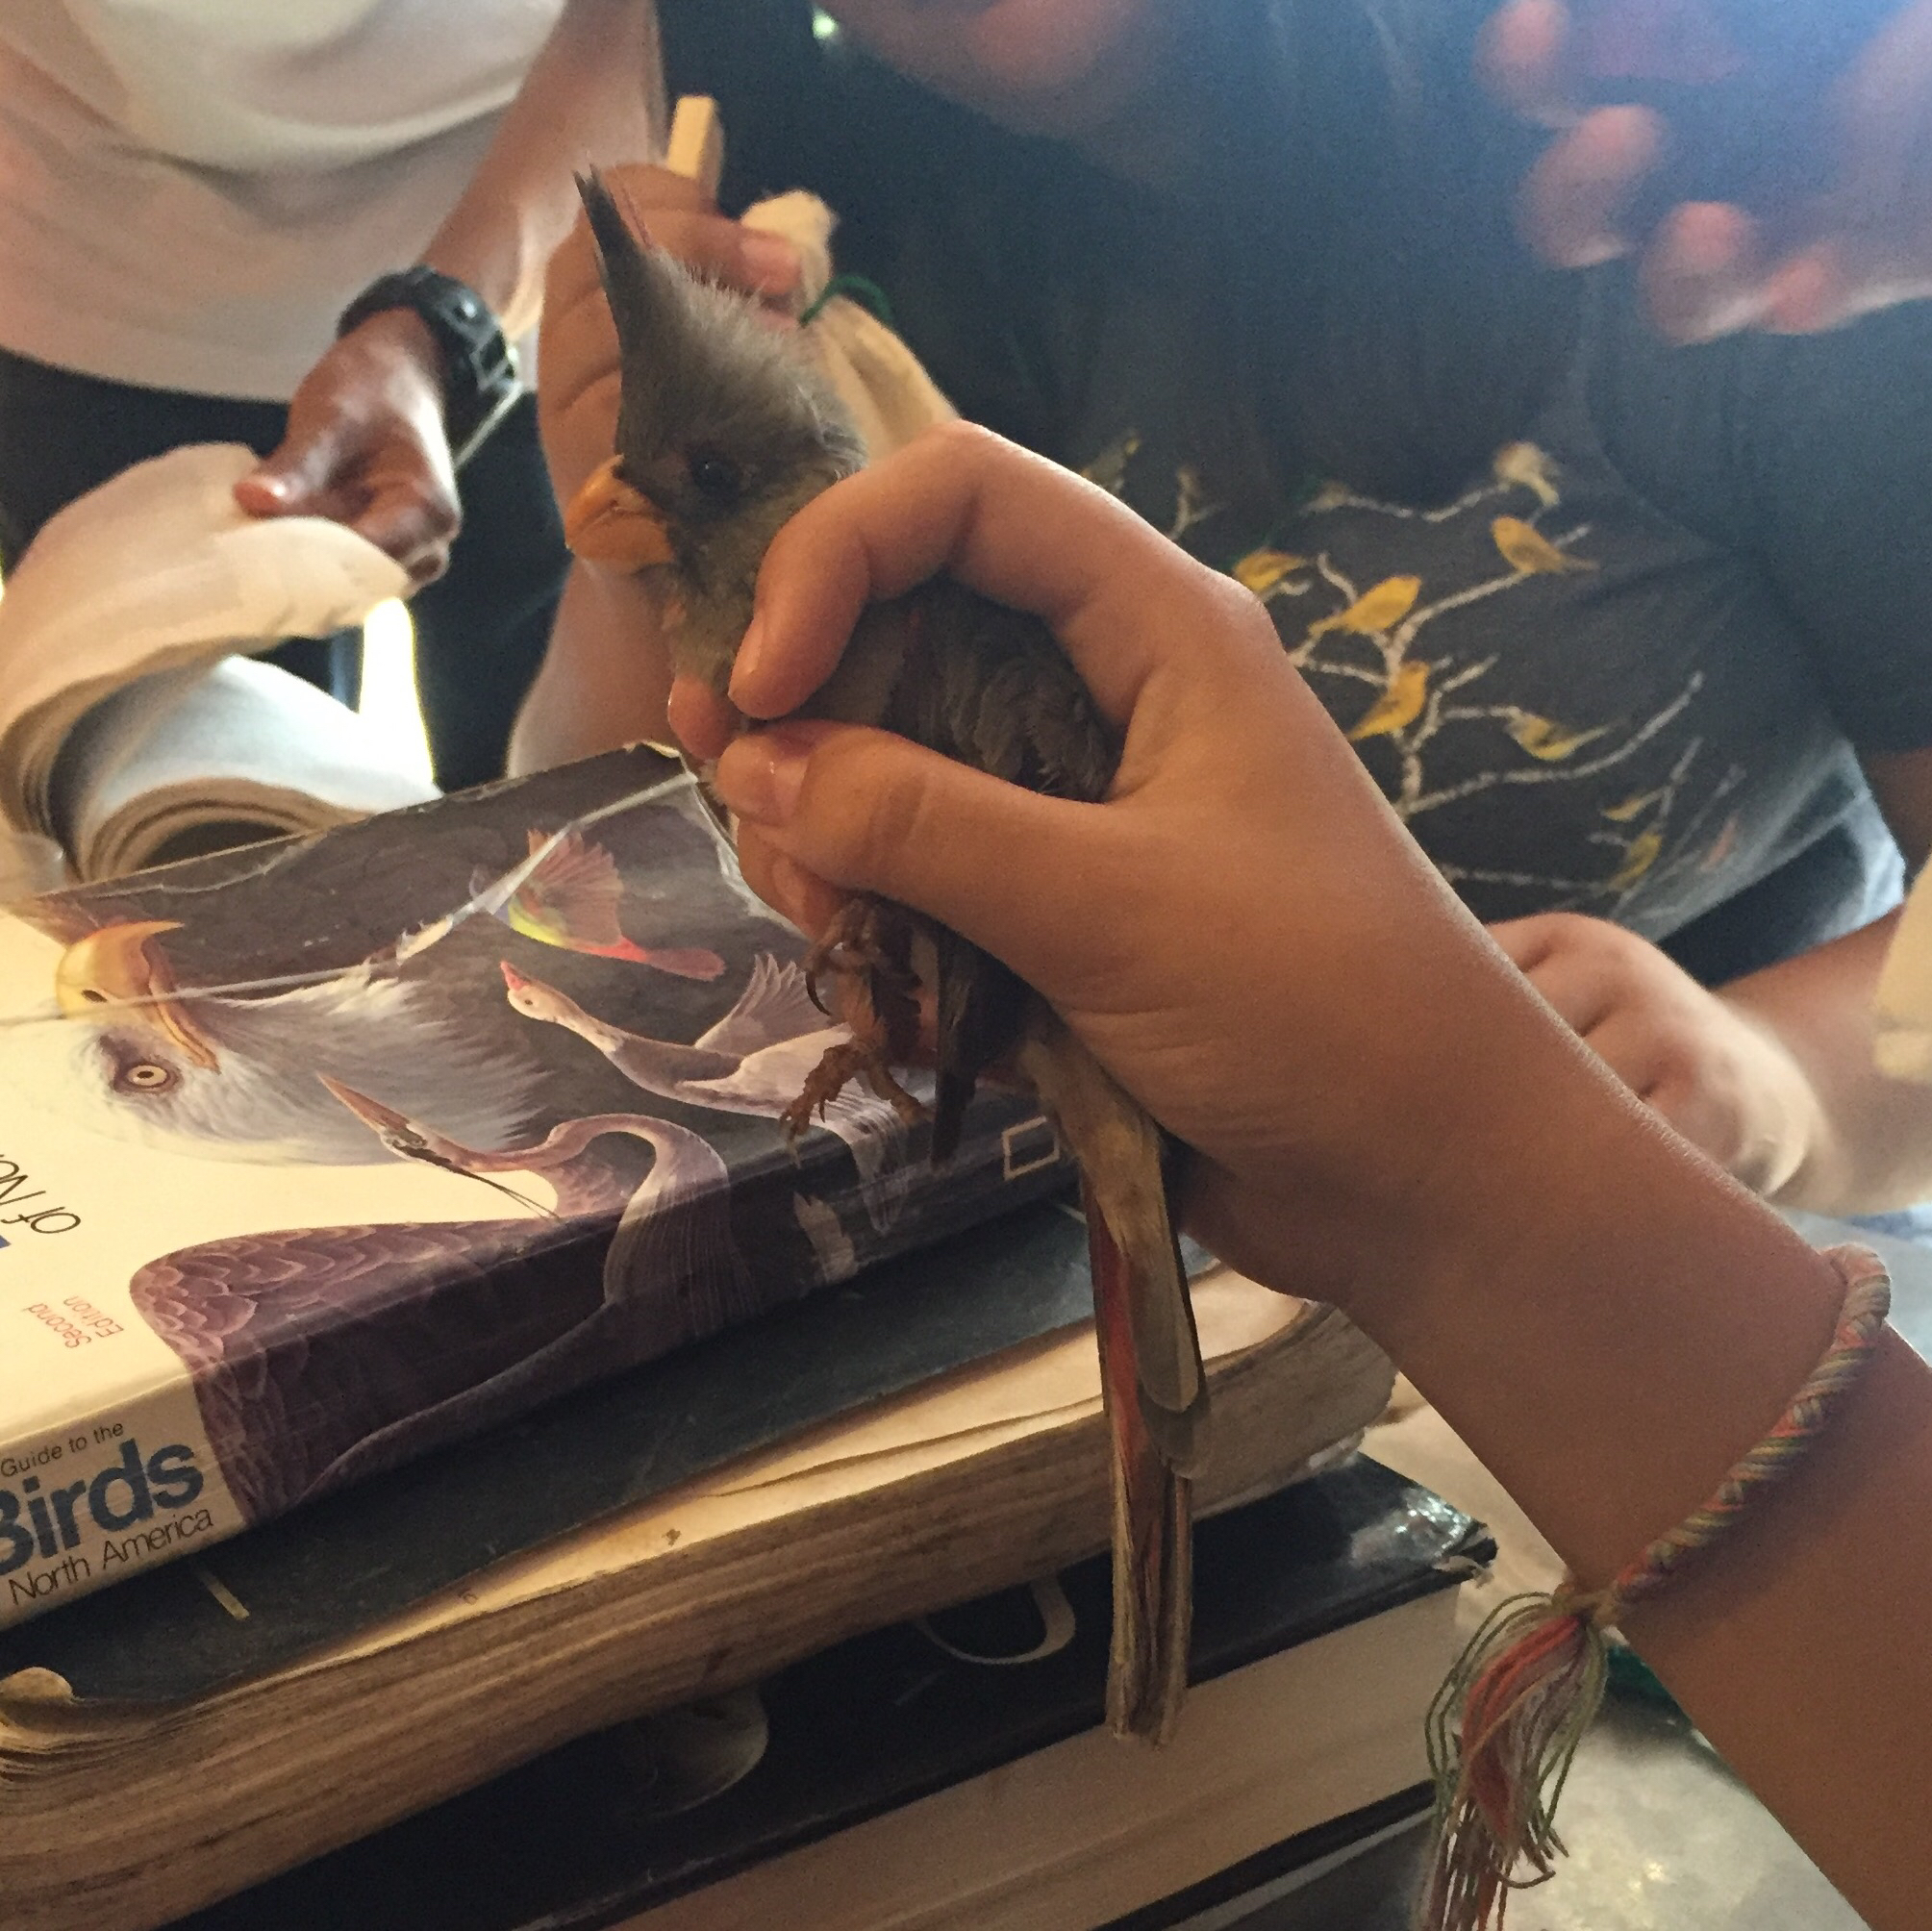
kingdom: Animalia
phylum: Chordata
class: Aves
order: Passeriformes
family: Cardinalidae
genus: Cardinalis
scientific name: Cardinalis sinuatus
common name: Pyrrhuloxia
